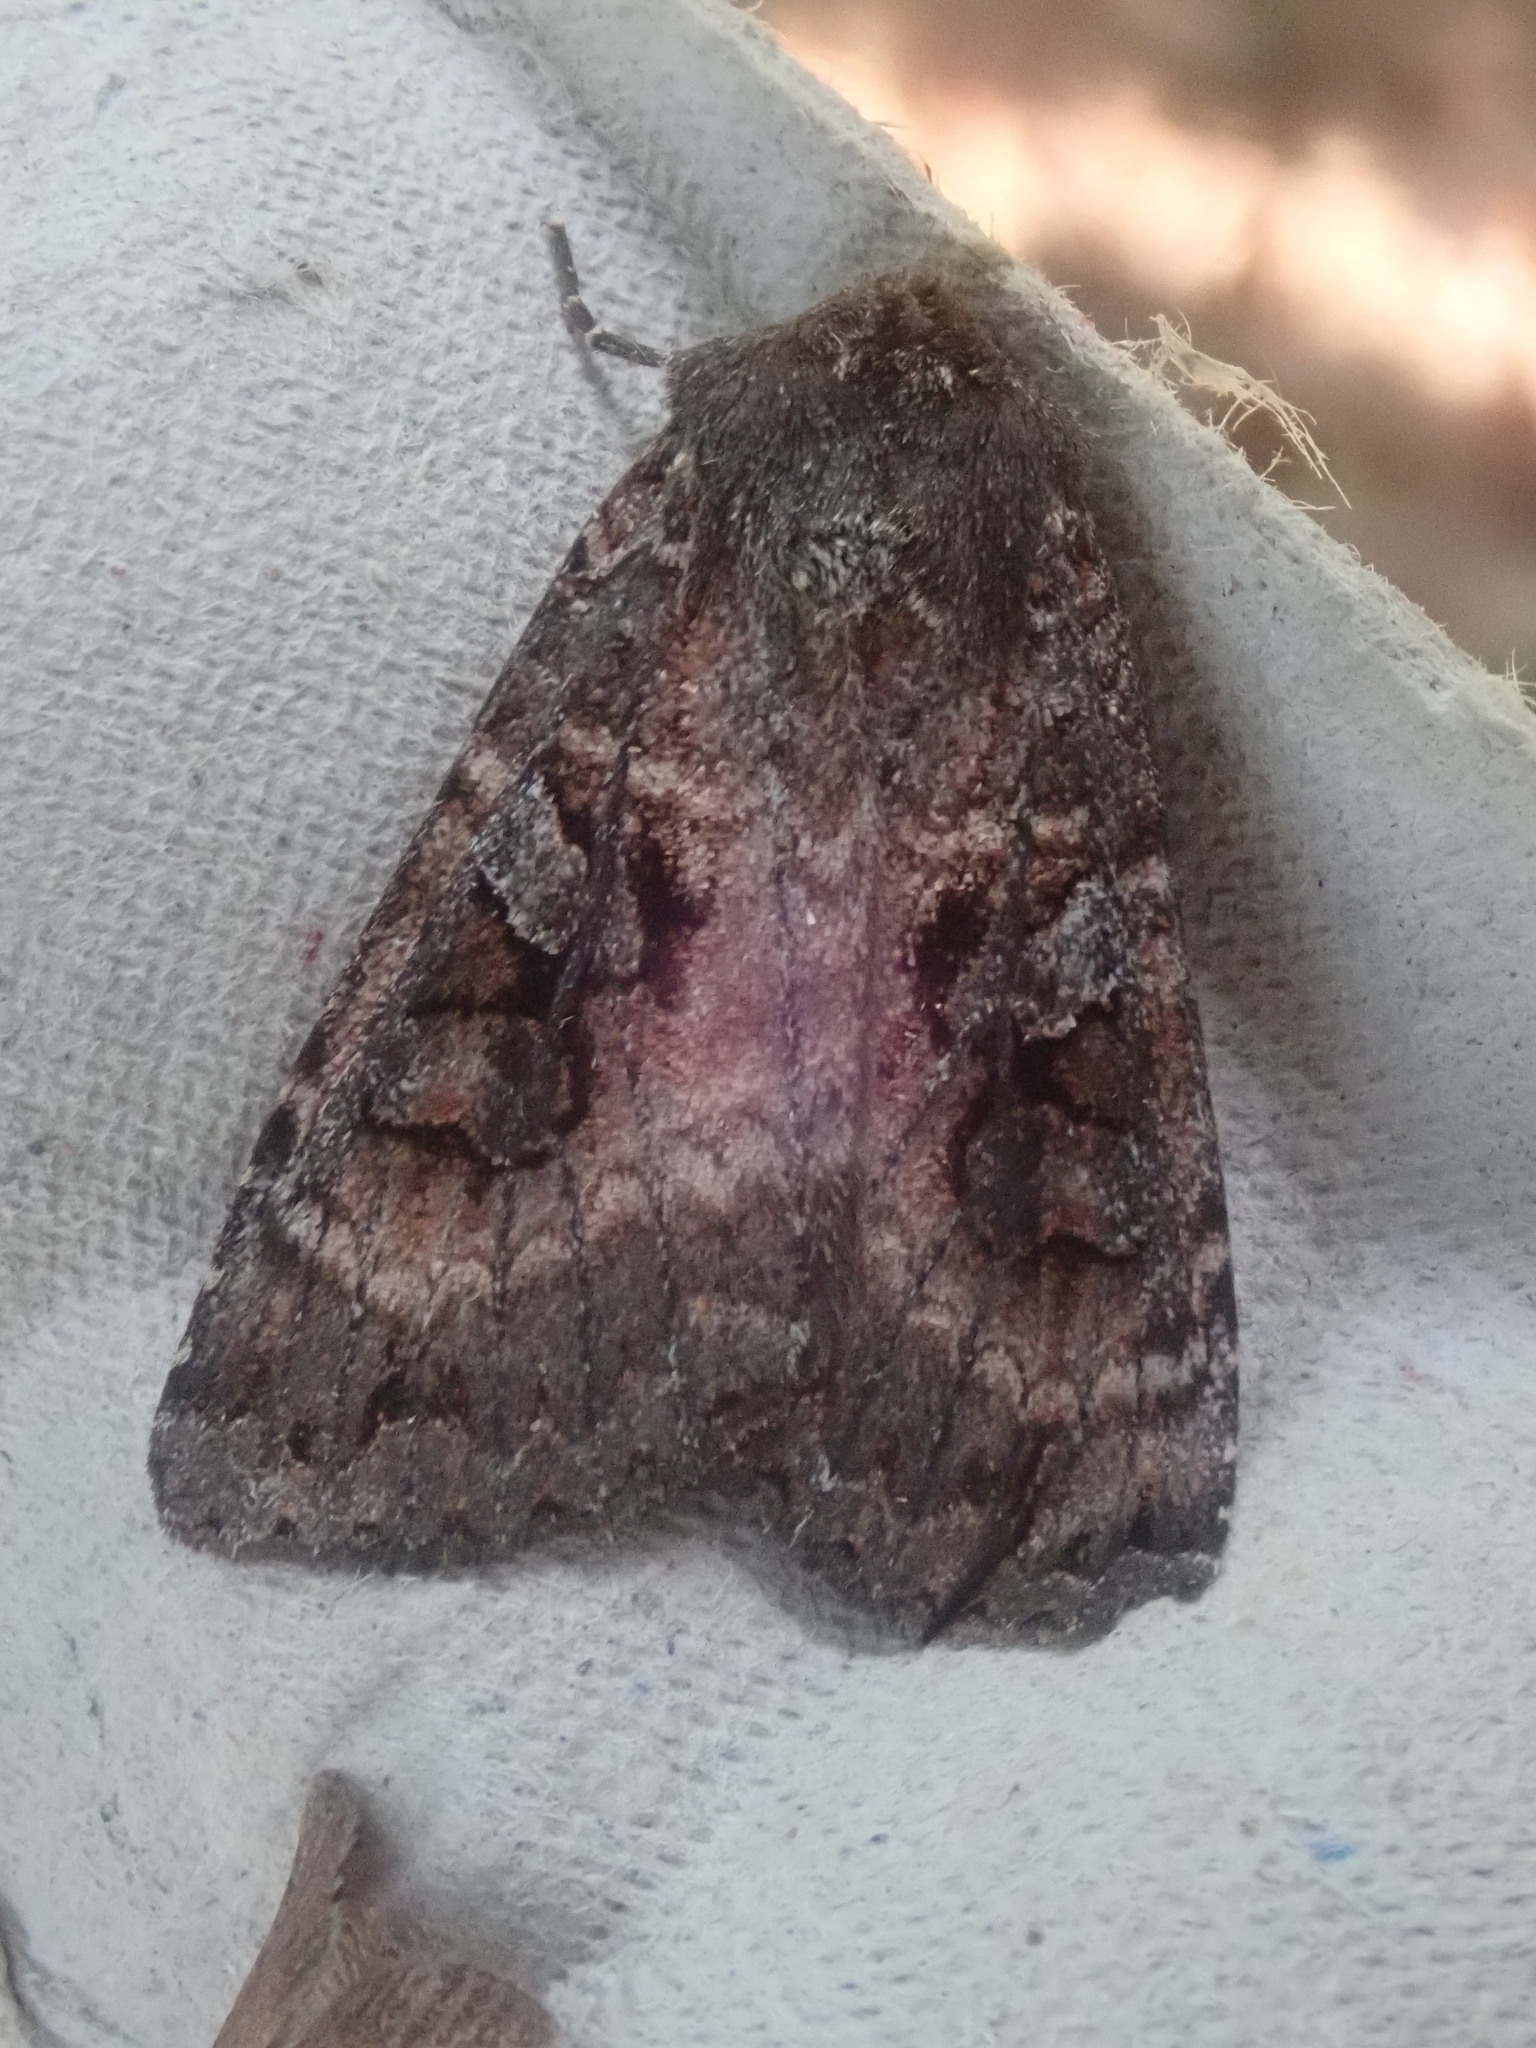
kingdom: Animalia
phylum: Arthropoda
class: Insecta
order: Lepidoptera
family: Noctuidae
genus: Eurois
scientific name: Eurois astricta
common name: Great brown dart
